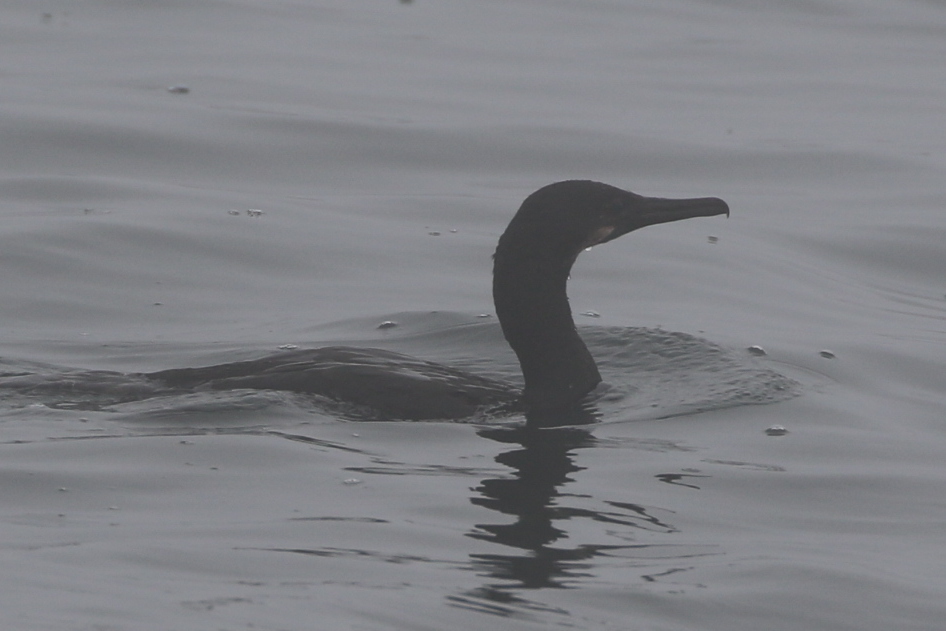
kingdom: Animalia
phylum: Chordata
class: Aves
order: Suliformes
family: Phalacrocoracidae
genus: Urile
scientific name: Urile penicillatus
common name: Brandt's cormorant
